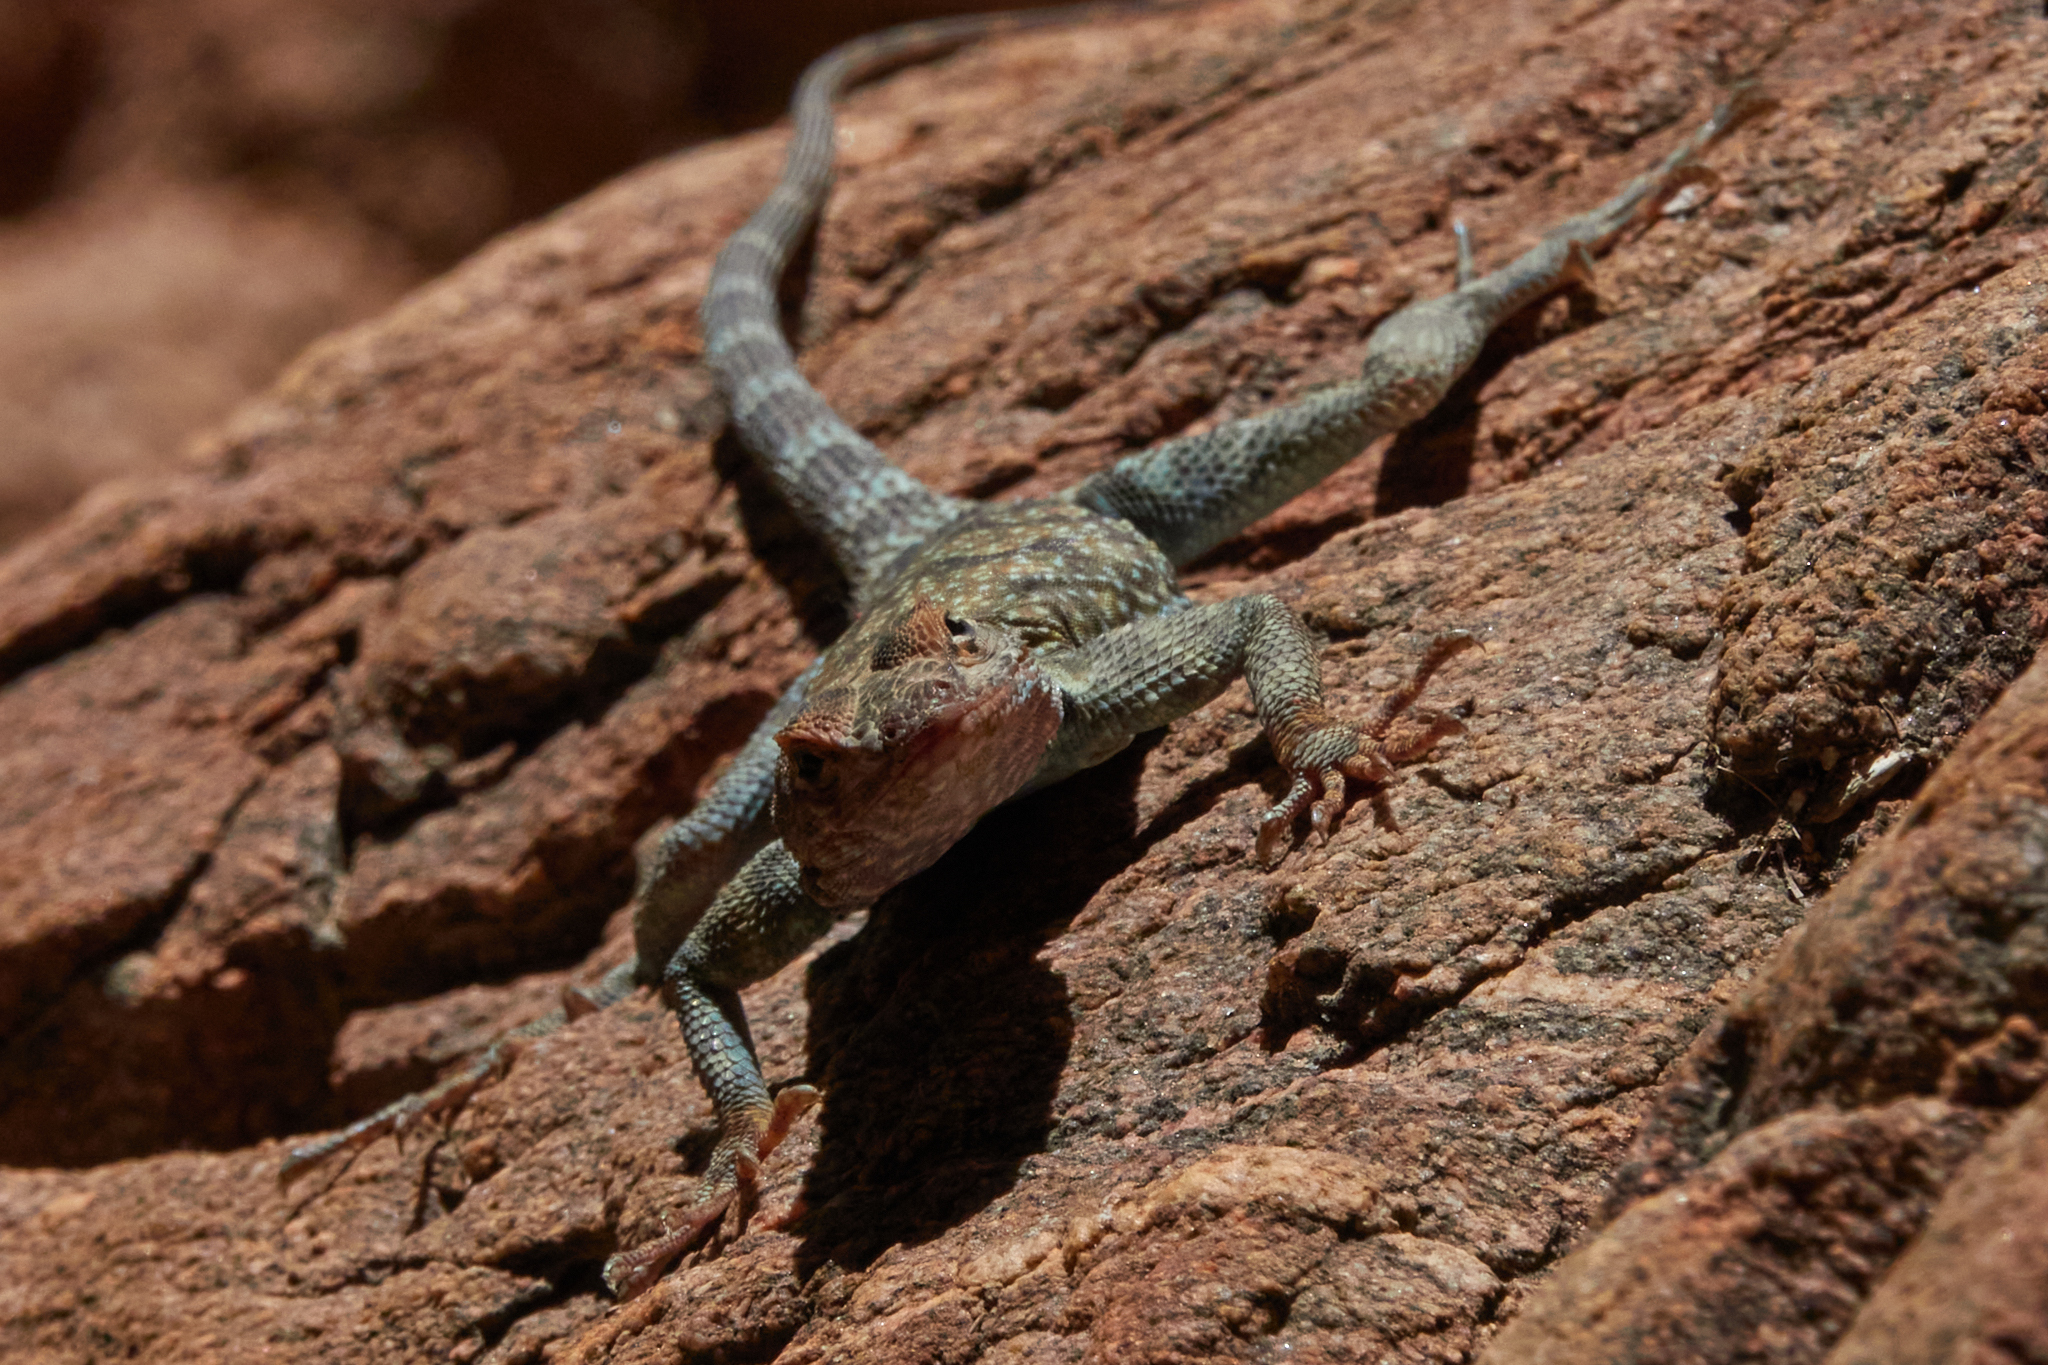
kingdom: Animalia
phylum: Chordata
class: Squamata
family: Phrynosomatidae
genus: Petrosaurus
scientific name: Petrosaurus mearnsi
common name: Banded rock lizard
